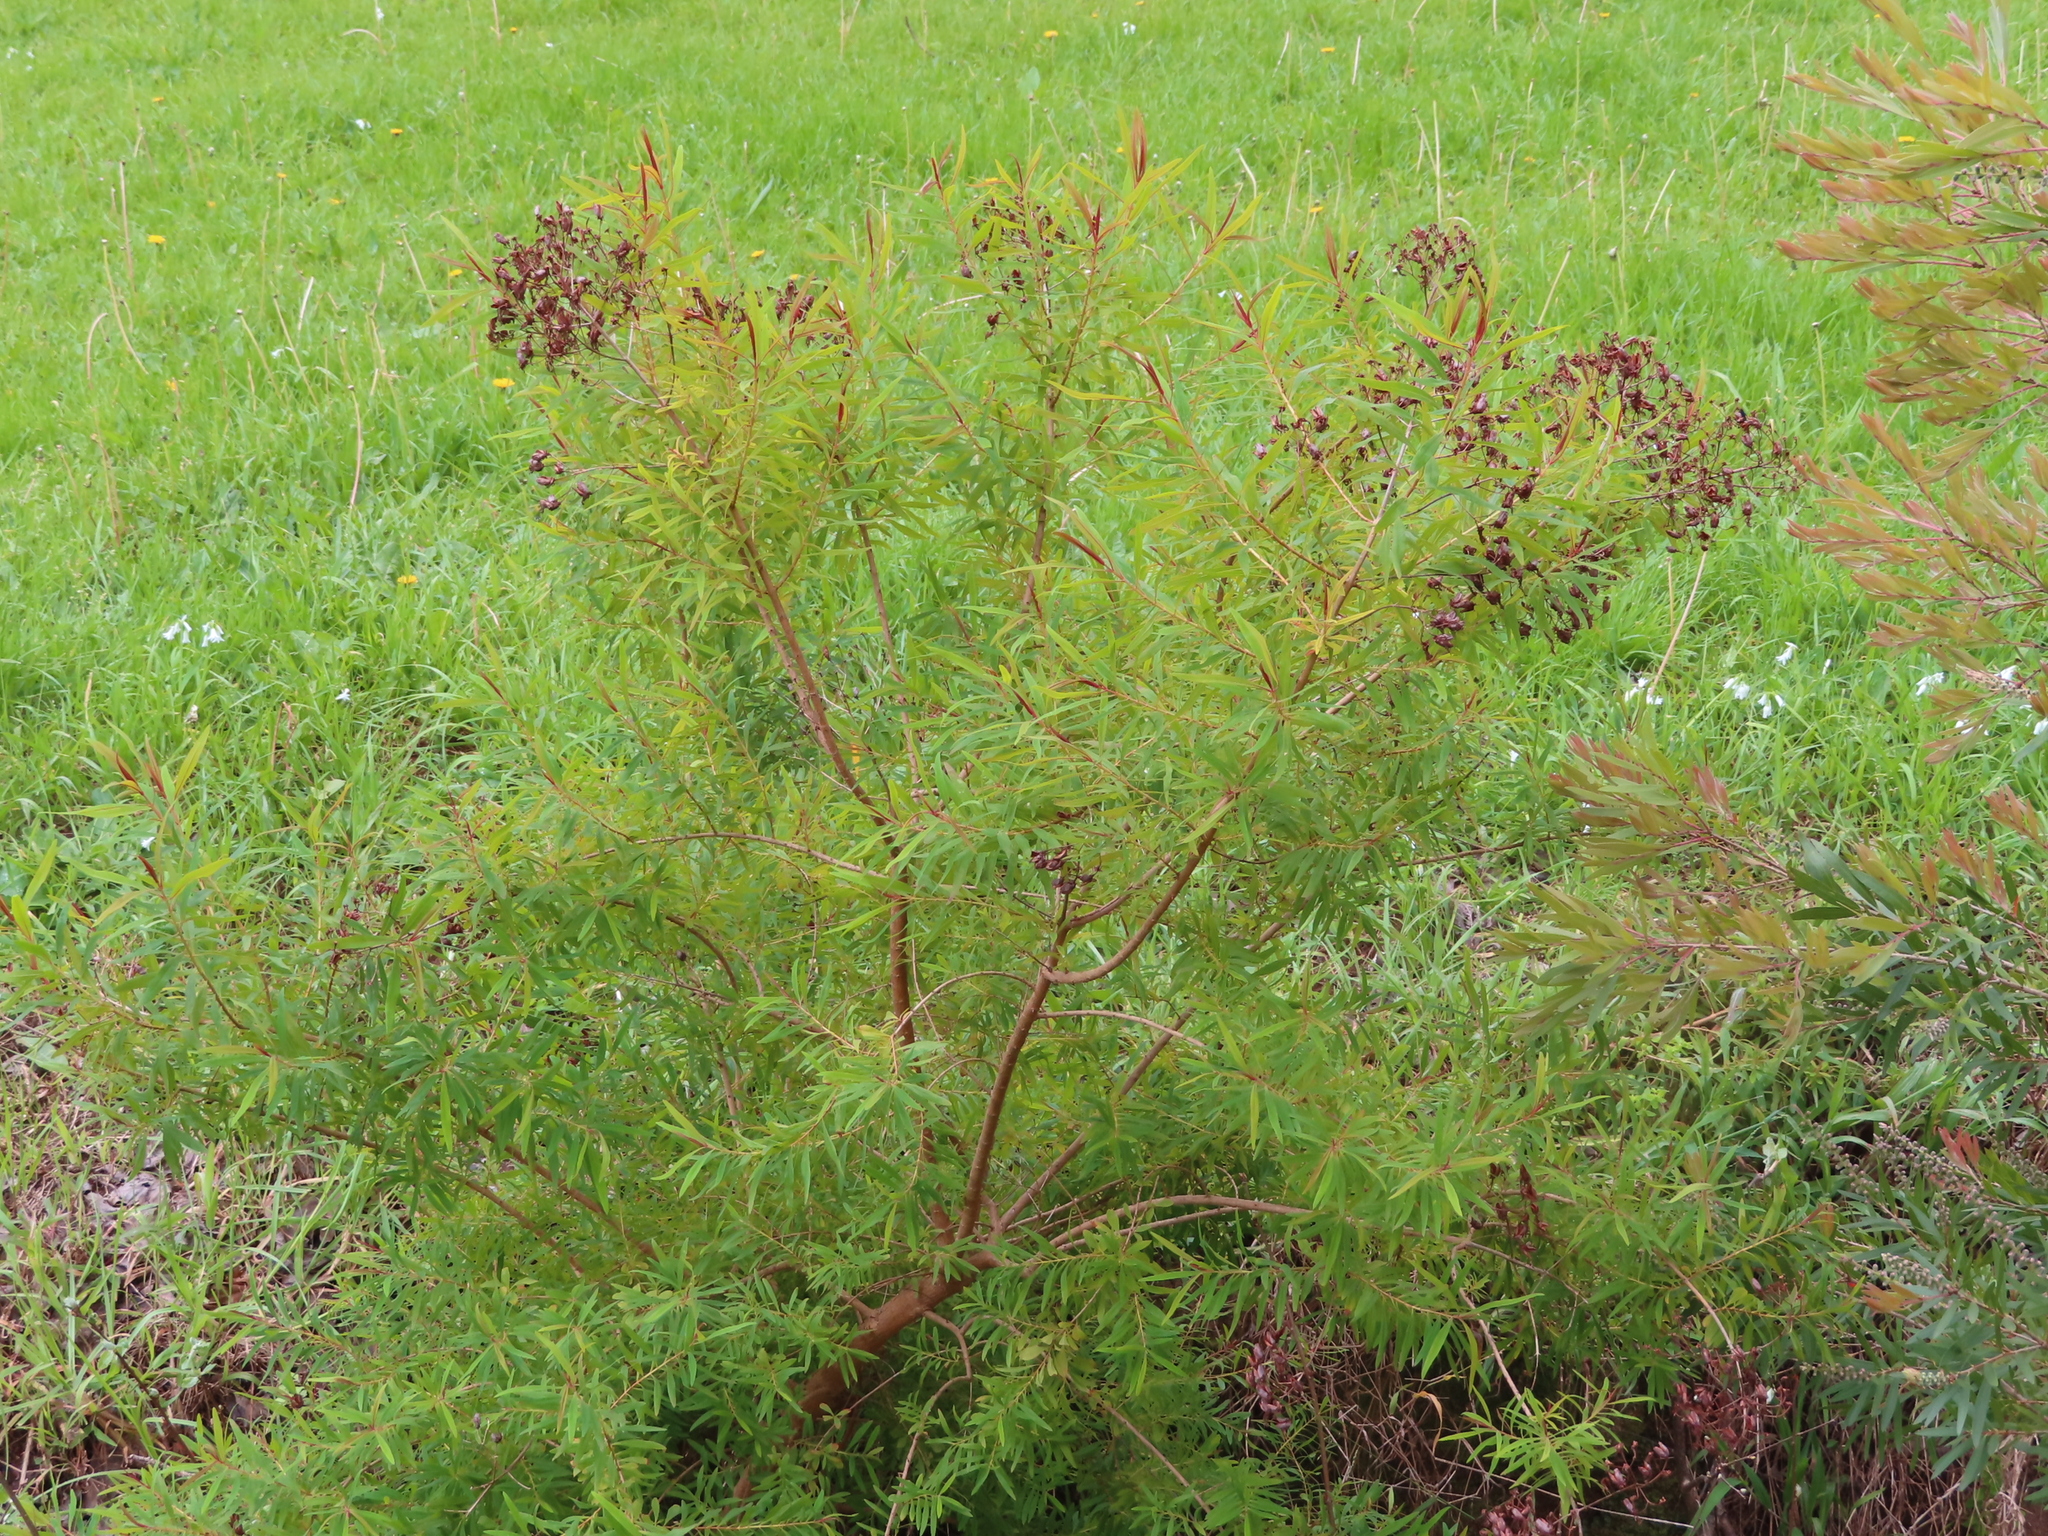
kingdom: Plantae
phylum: Tracheophyta
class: Magnoliopsida
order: Malpighiales
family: Hypericaceae
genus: Hypericum
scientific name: Hypericum canariense
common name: Canary island st. johnswort
